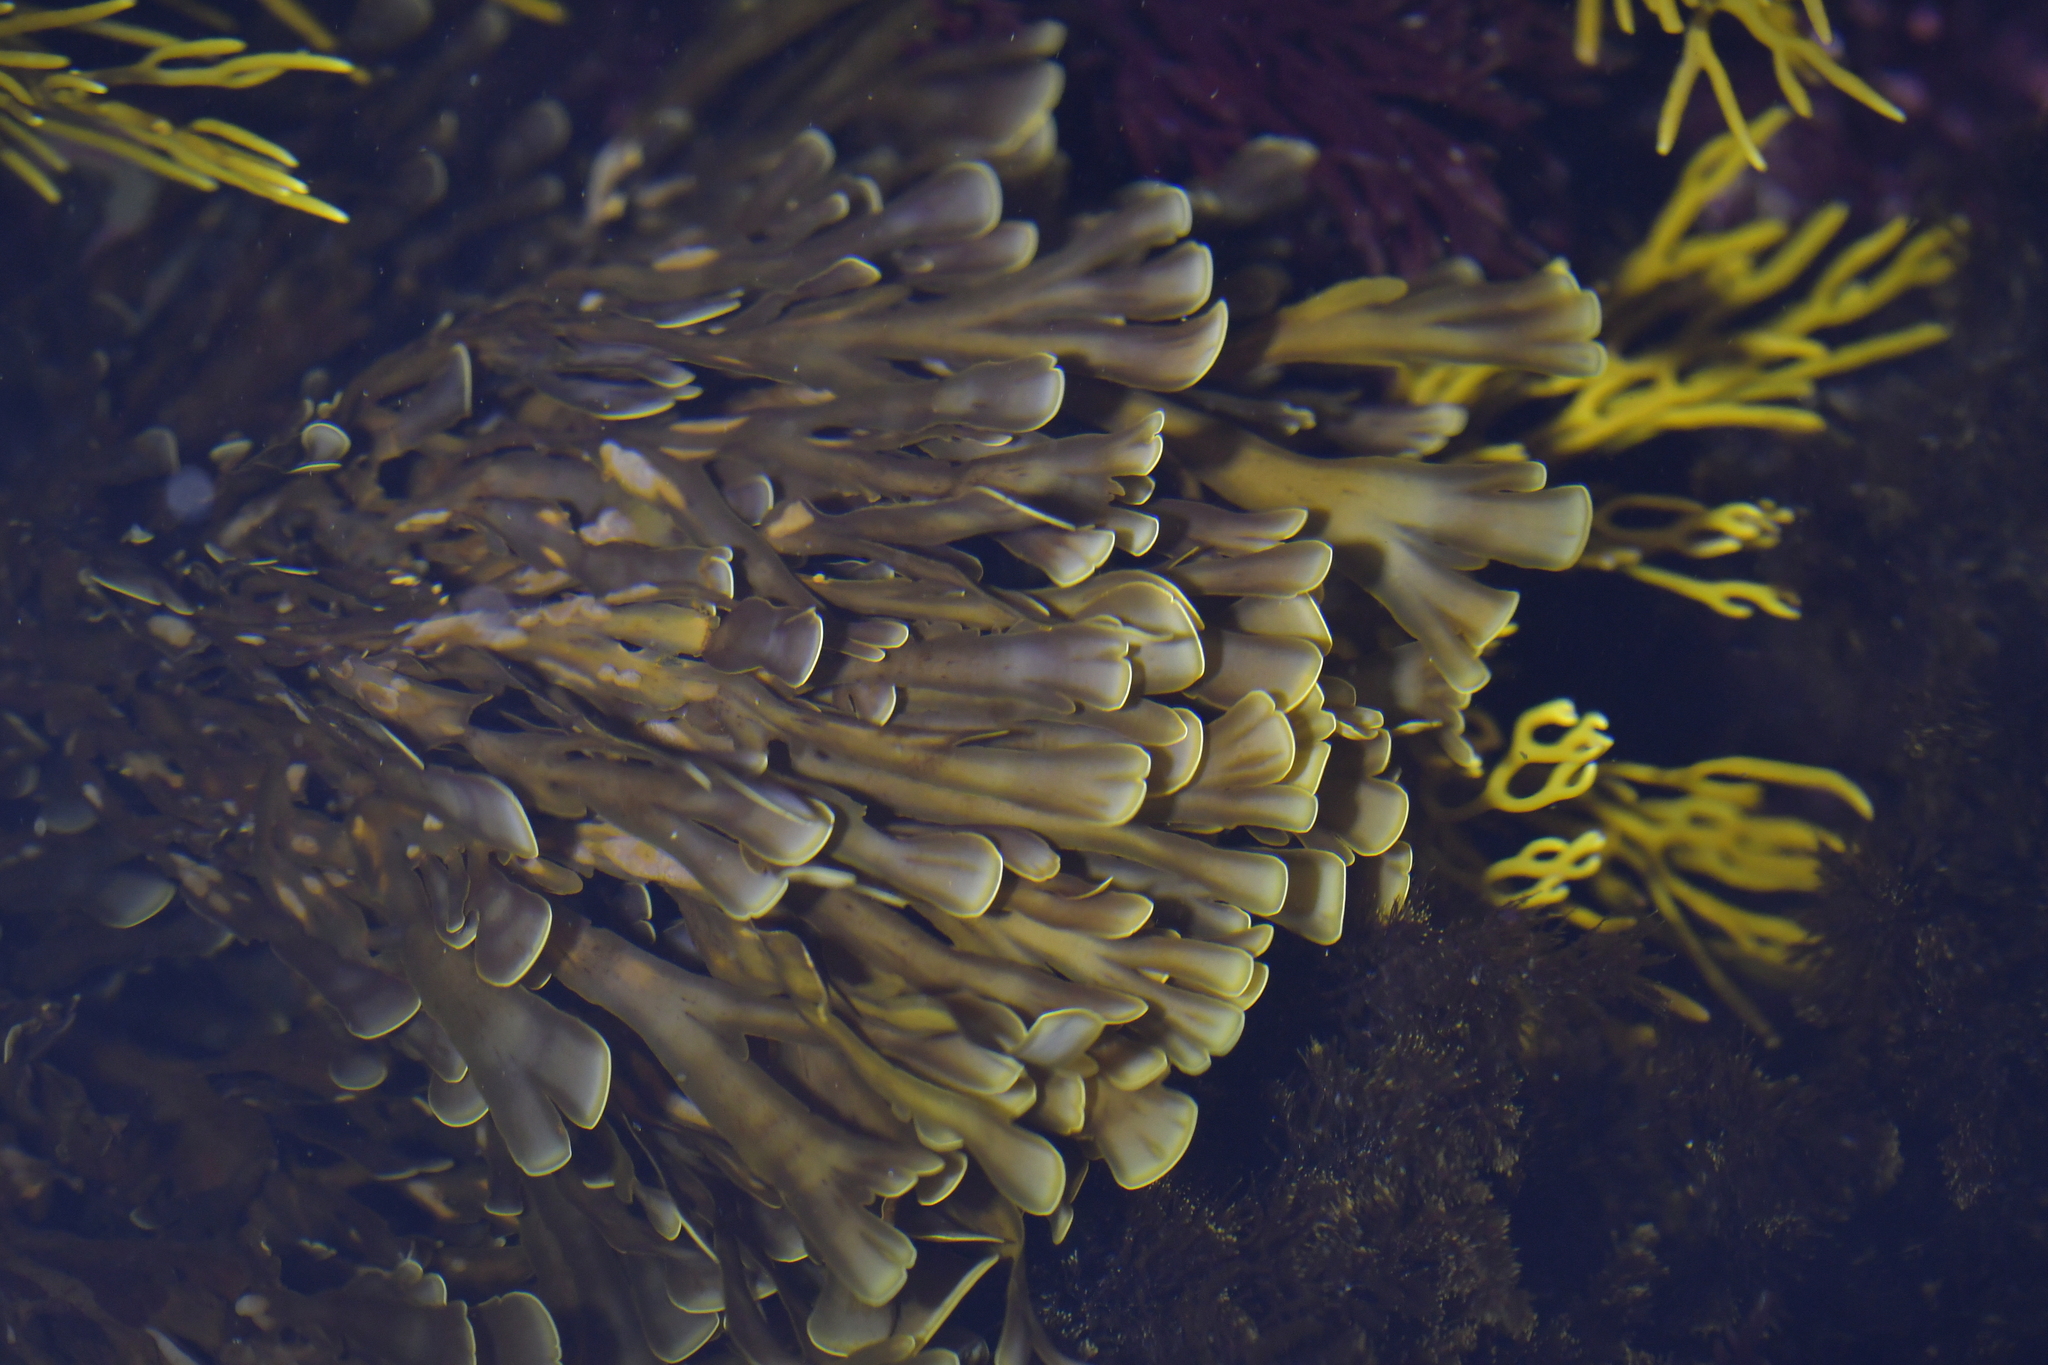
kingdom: Chromista
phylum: Ochrophyta
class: Phaeophyceae
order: Dictyotales
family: Dictyotaceae
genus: Zonaria
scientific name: Zonaria turneriana
